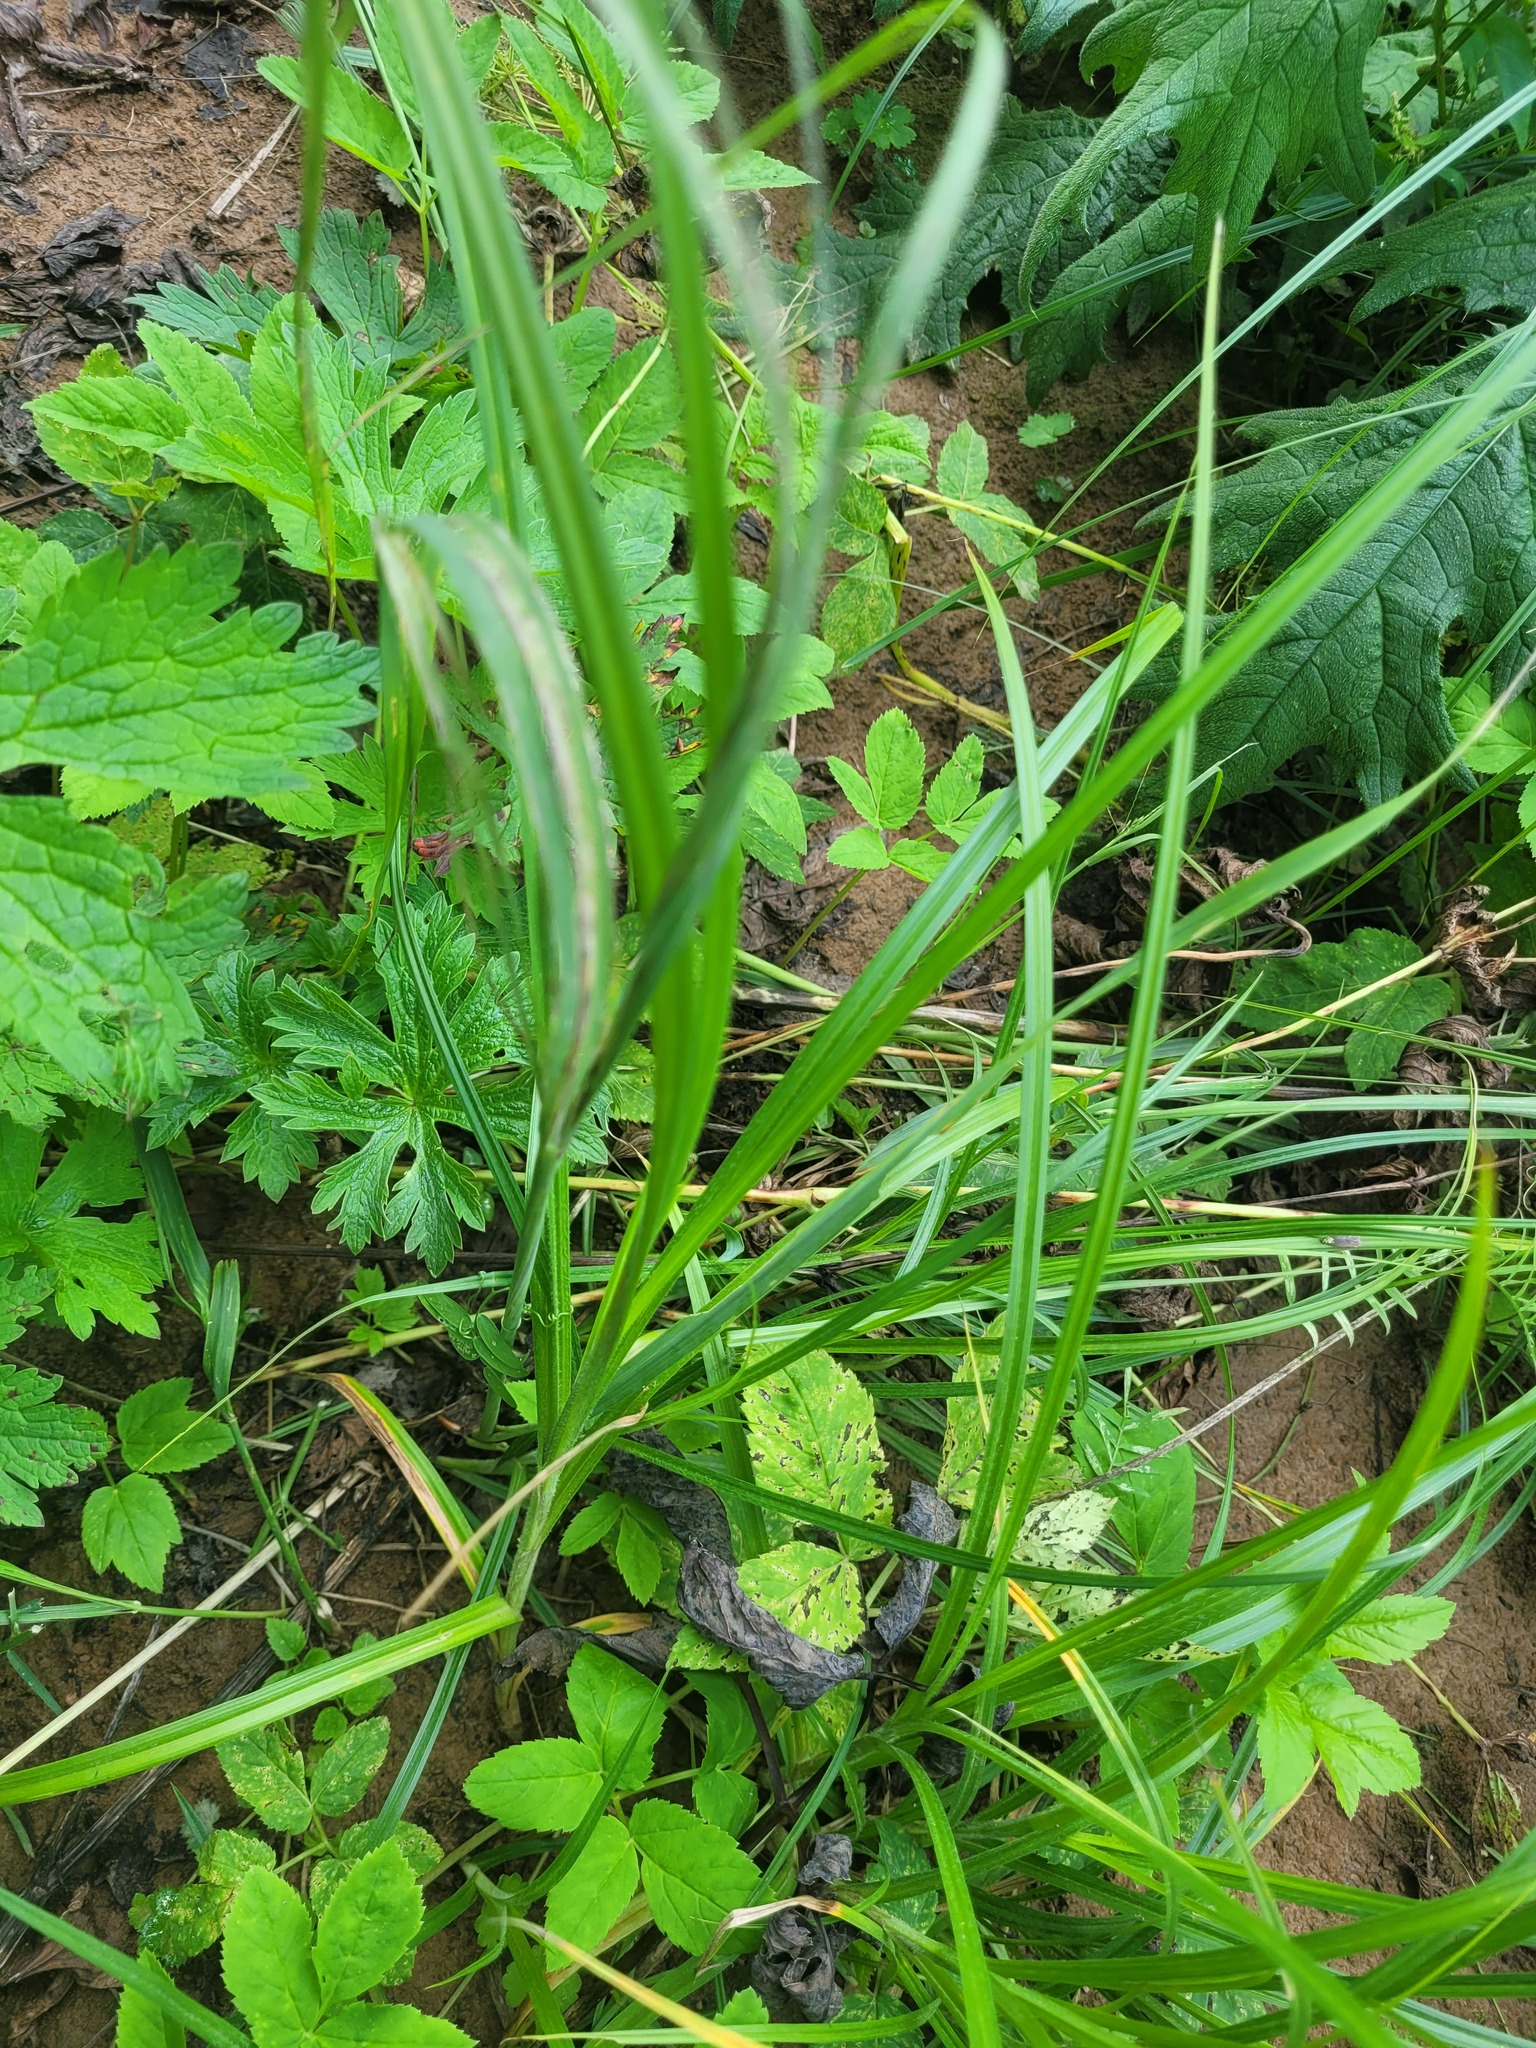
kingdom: Plantae
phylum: Tracheophyta
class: Liliopsida
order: Poales
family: Cyperaceae
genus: Carex
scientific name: Carex hirta
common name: Hairy sedge
